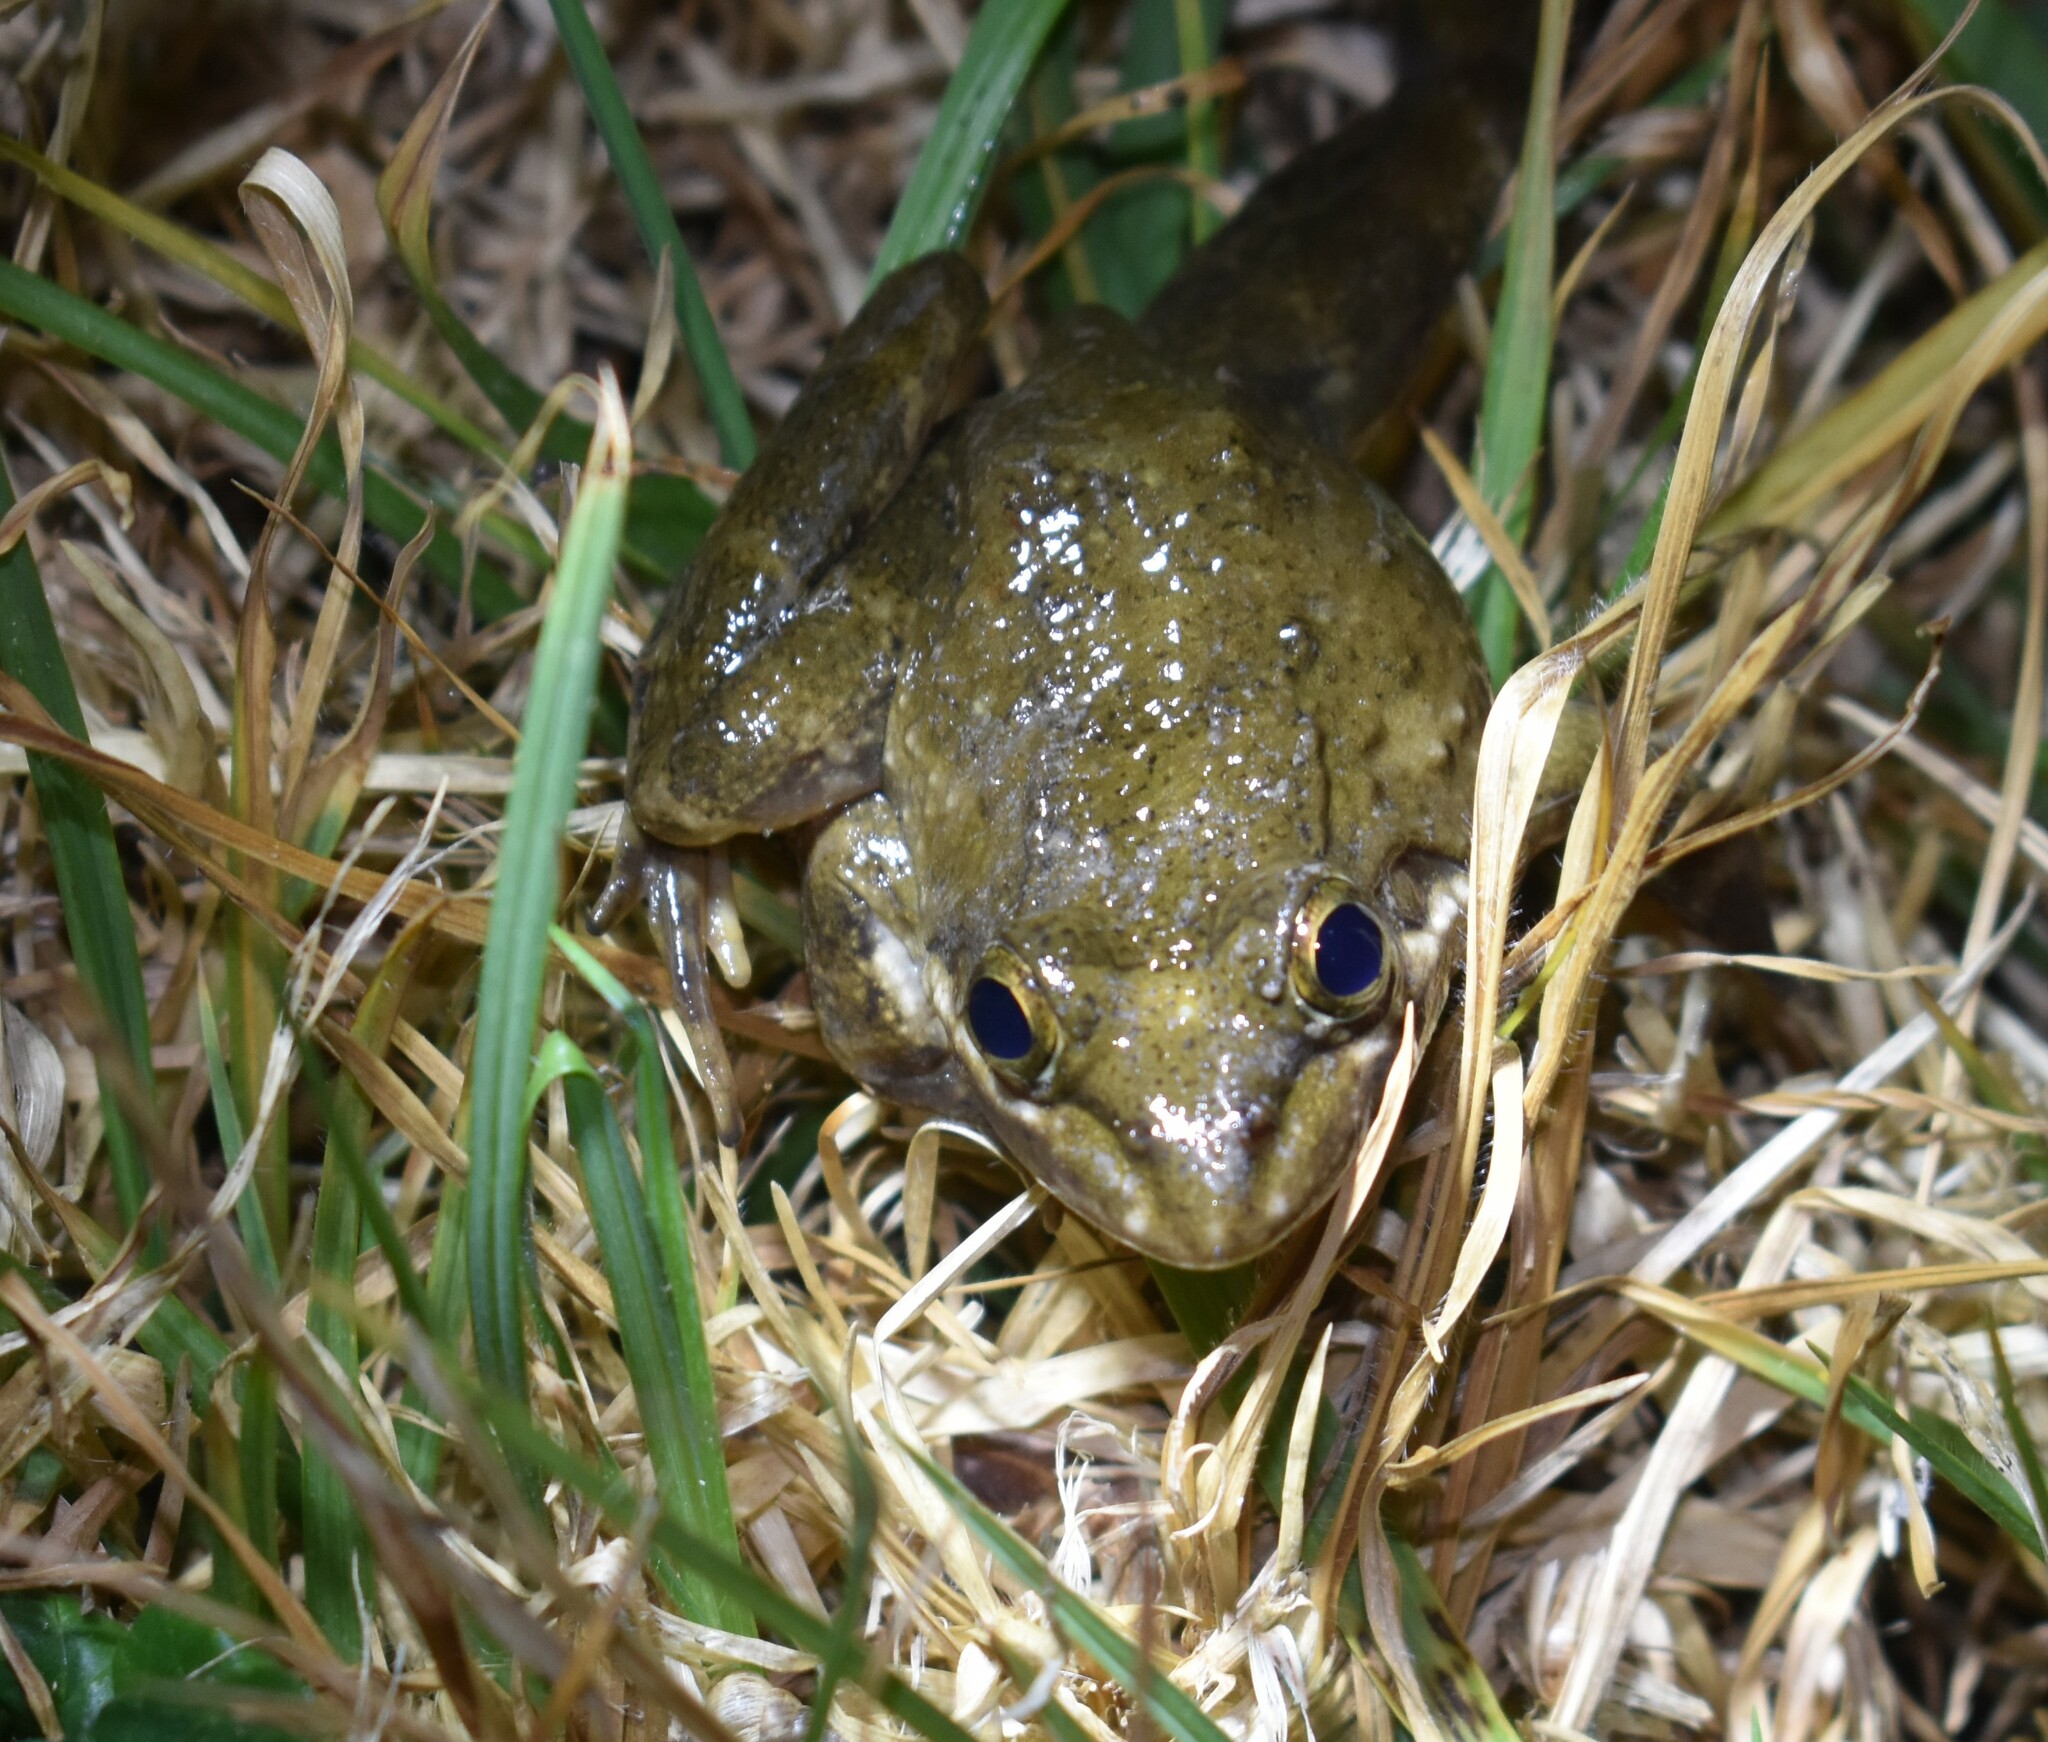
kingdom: Animalia
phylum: Chordata
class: Amphibia
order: Anura
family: Pyxicephalidae
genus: Amietia
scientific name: Amietia fuscigula
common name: Cape rana
